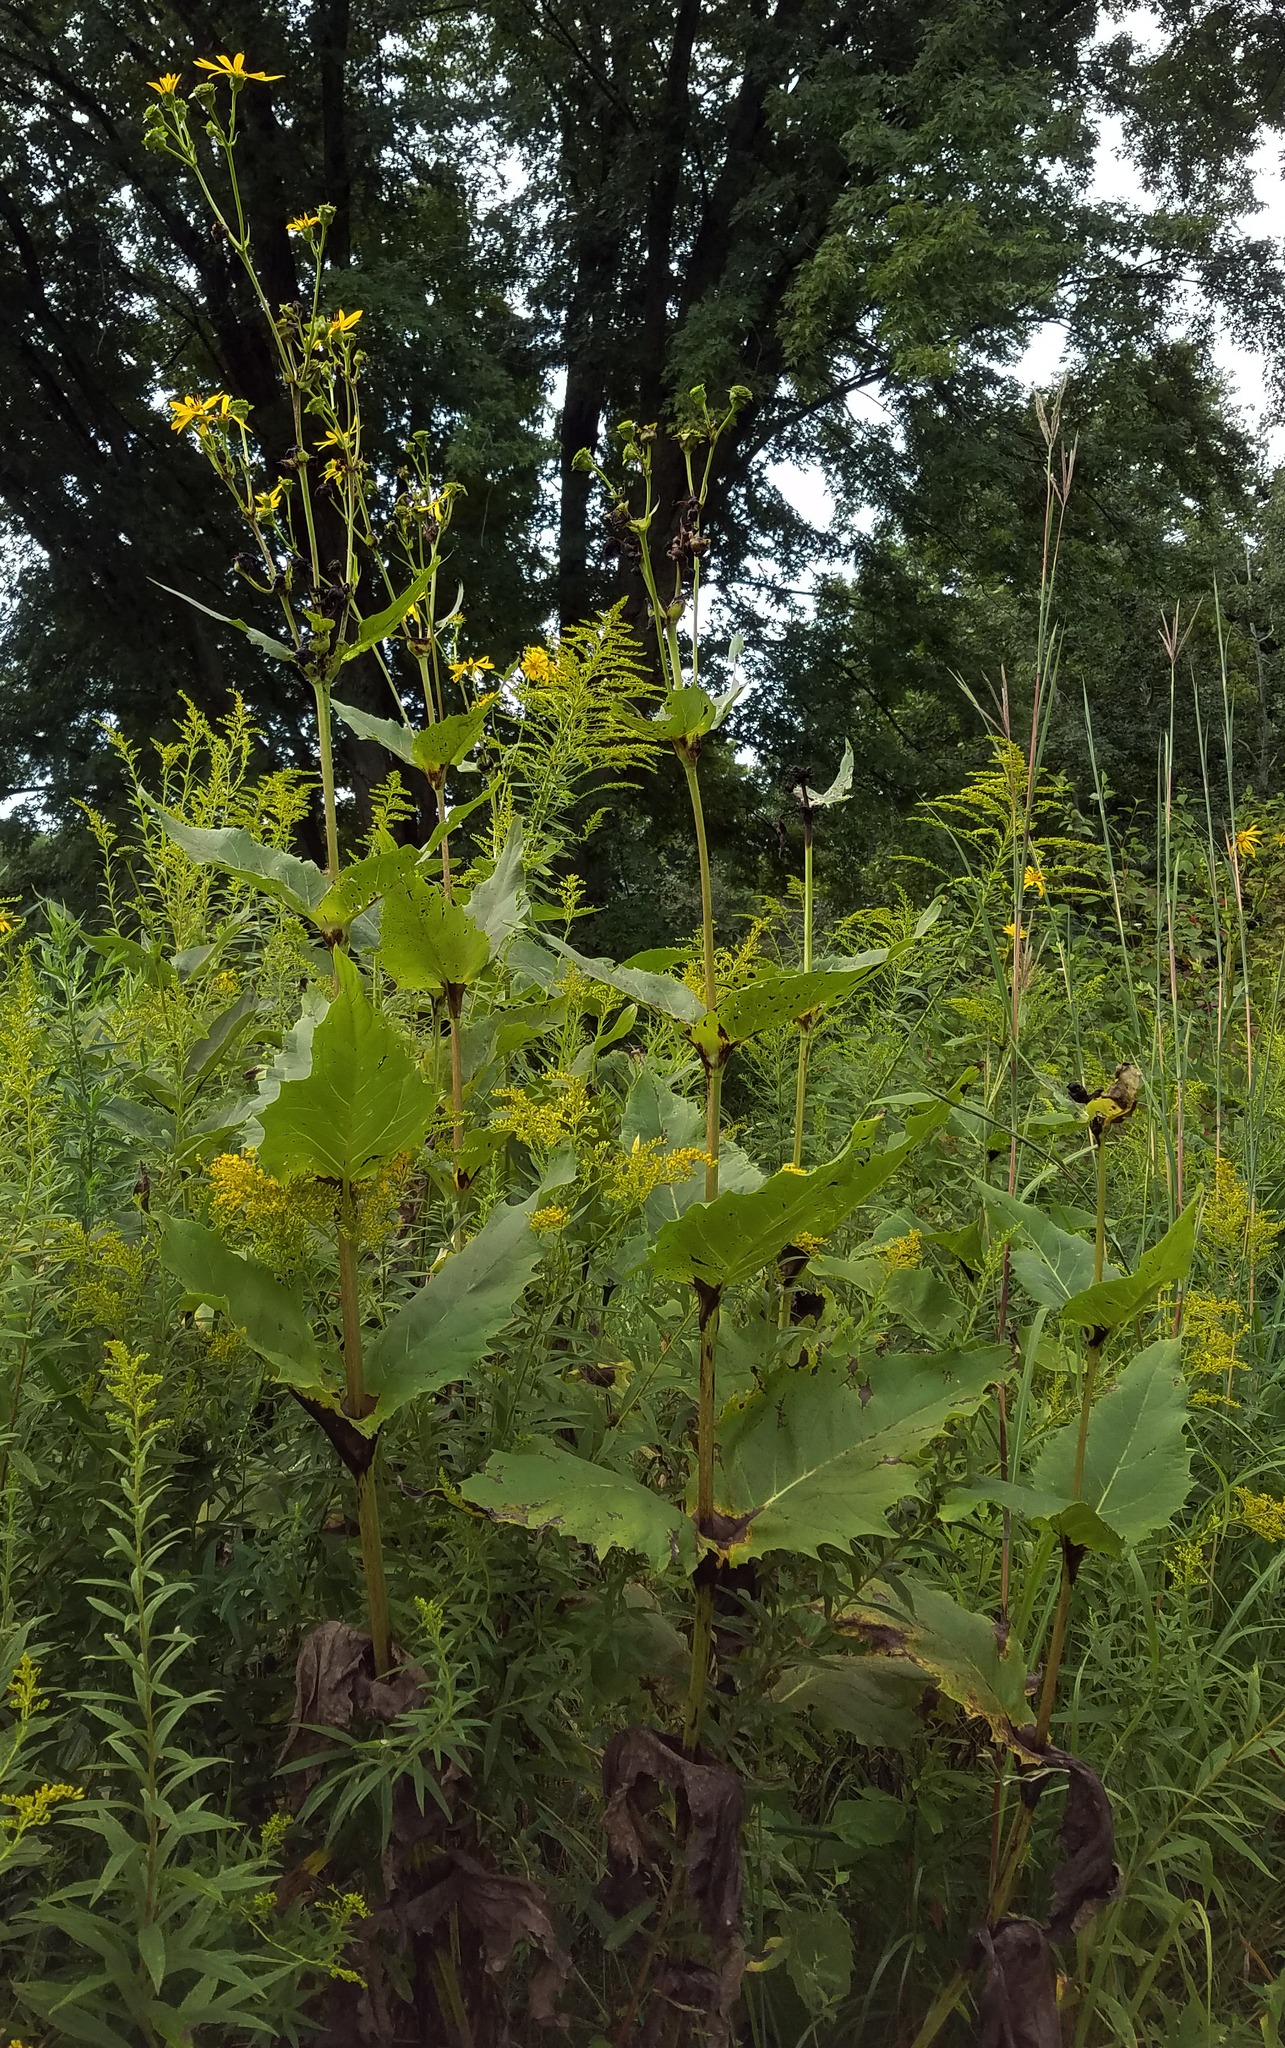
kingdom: Plantae
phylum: Tracheophyta
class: Magnoliopsida
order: Asterales
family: Asteraceae
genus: Silphium
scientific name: Silphium perfoliatum
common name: Cup-plant
